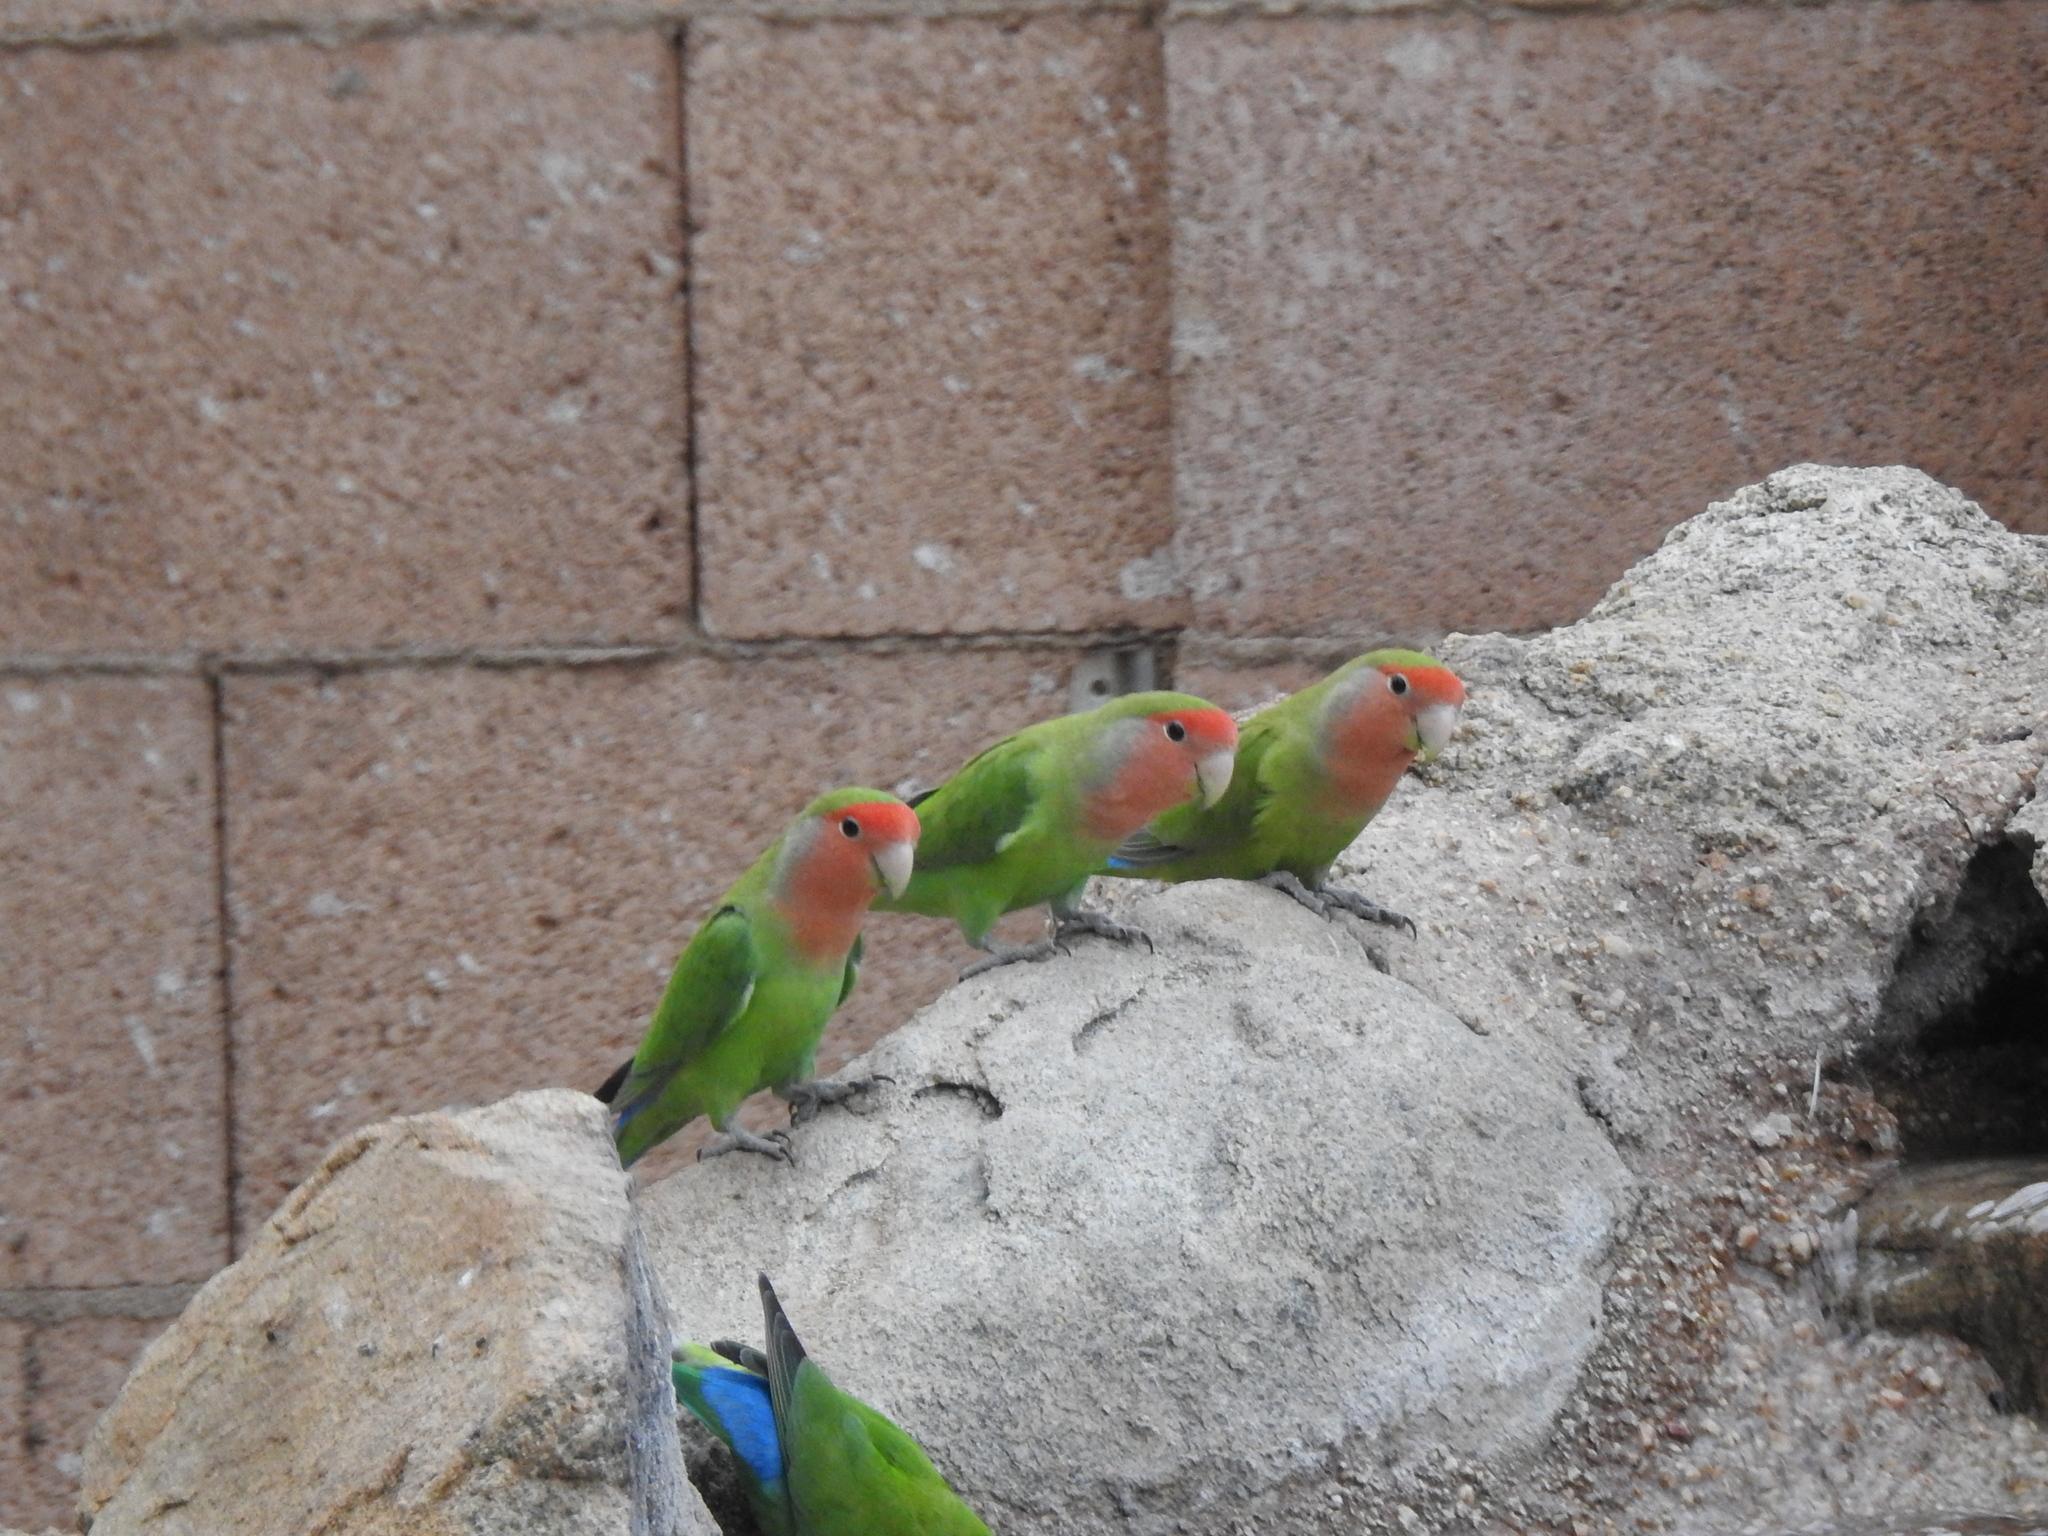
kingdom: Animalia
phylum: Chordata
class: Aves
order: Psittaciformes
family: Psittacidae
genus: Agapornis
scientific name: Agapornis roseicollis
